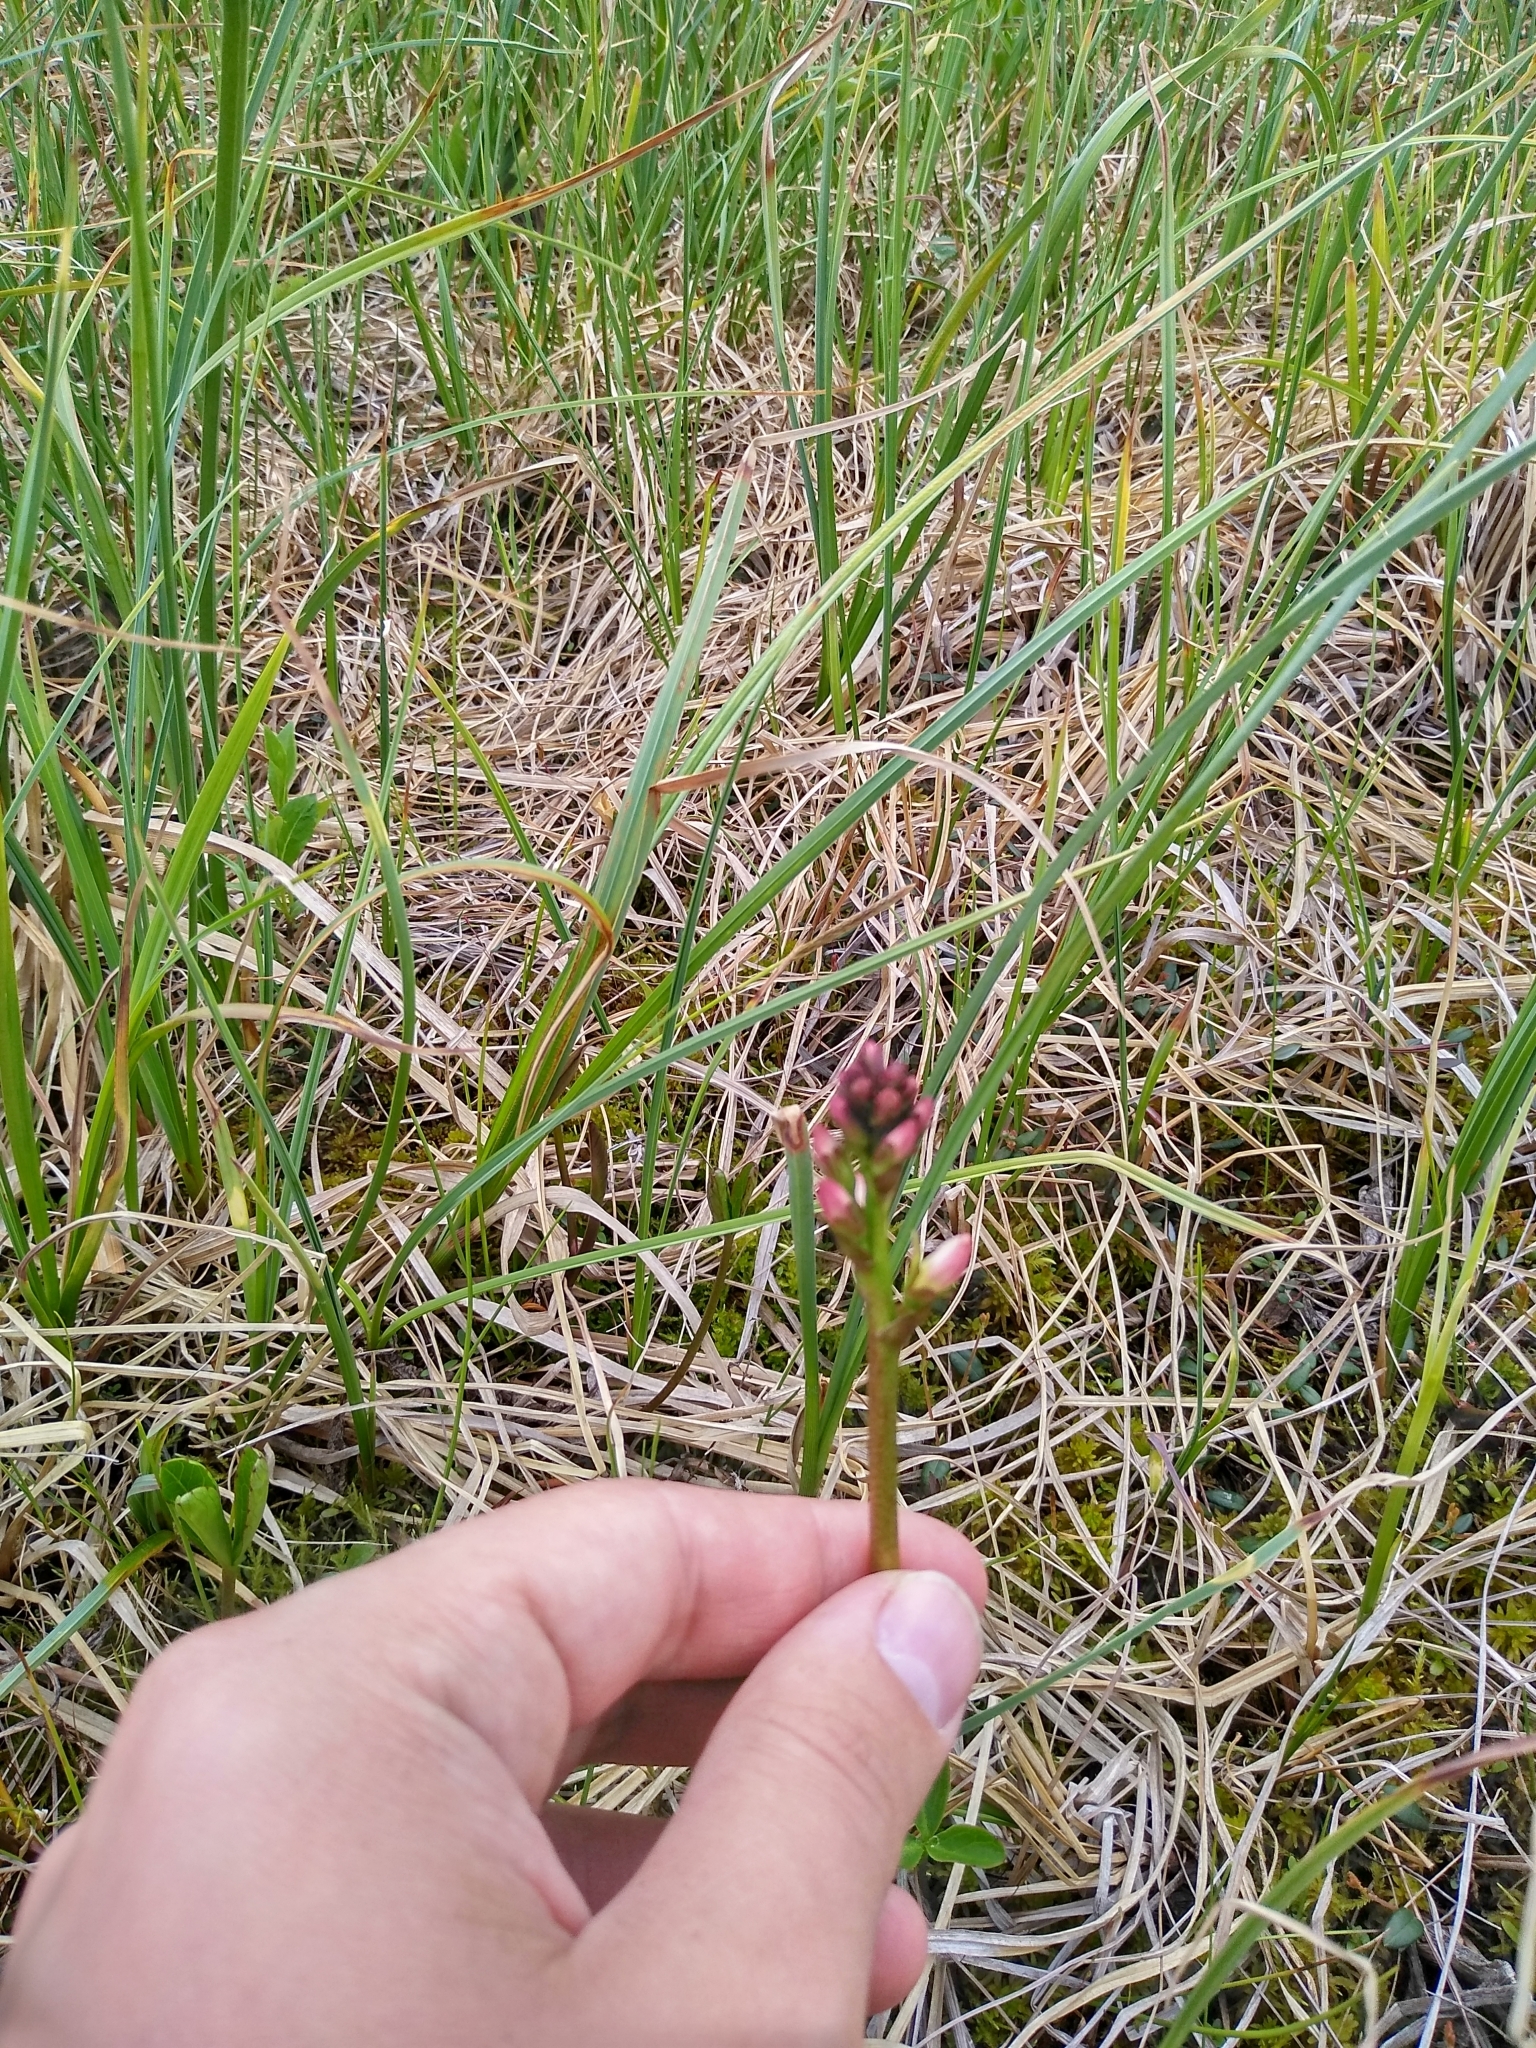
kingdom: Plantae
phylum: Tracheophyta
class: Magnoliopsida
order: Rosales
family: Rosaceae
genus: Comarum
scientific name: Comarum palustre
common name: Marsh cinquefoil
